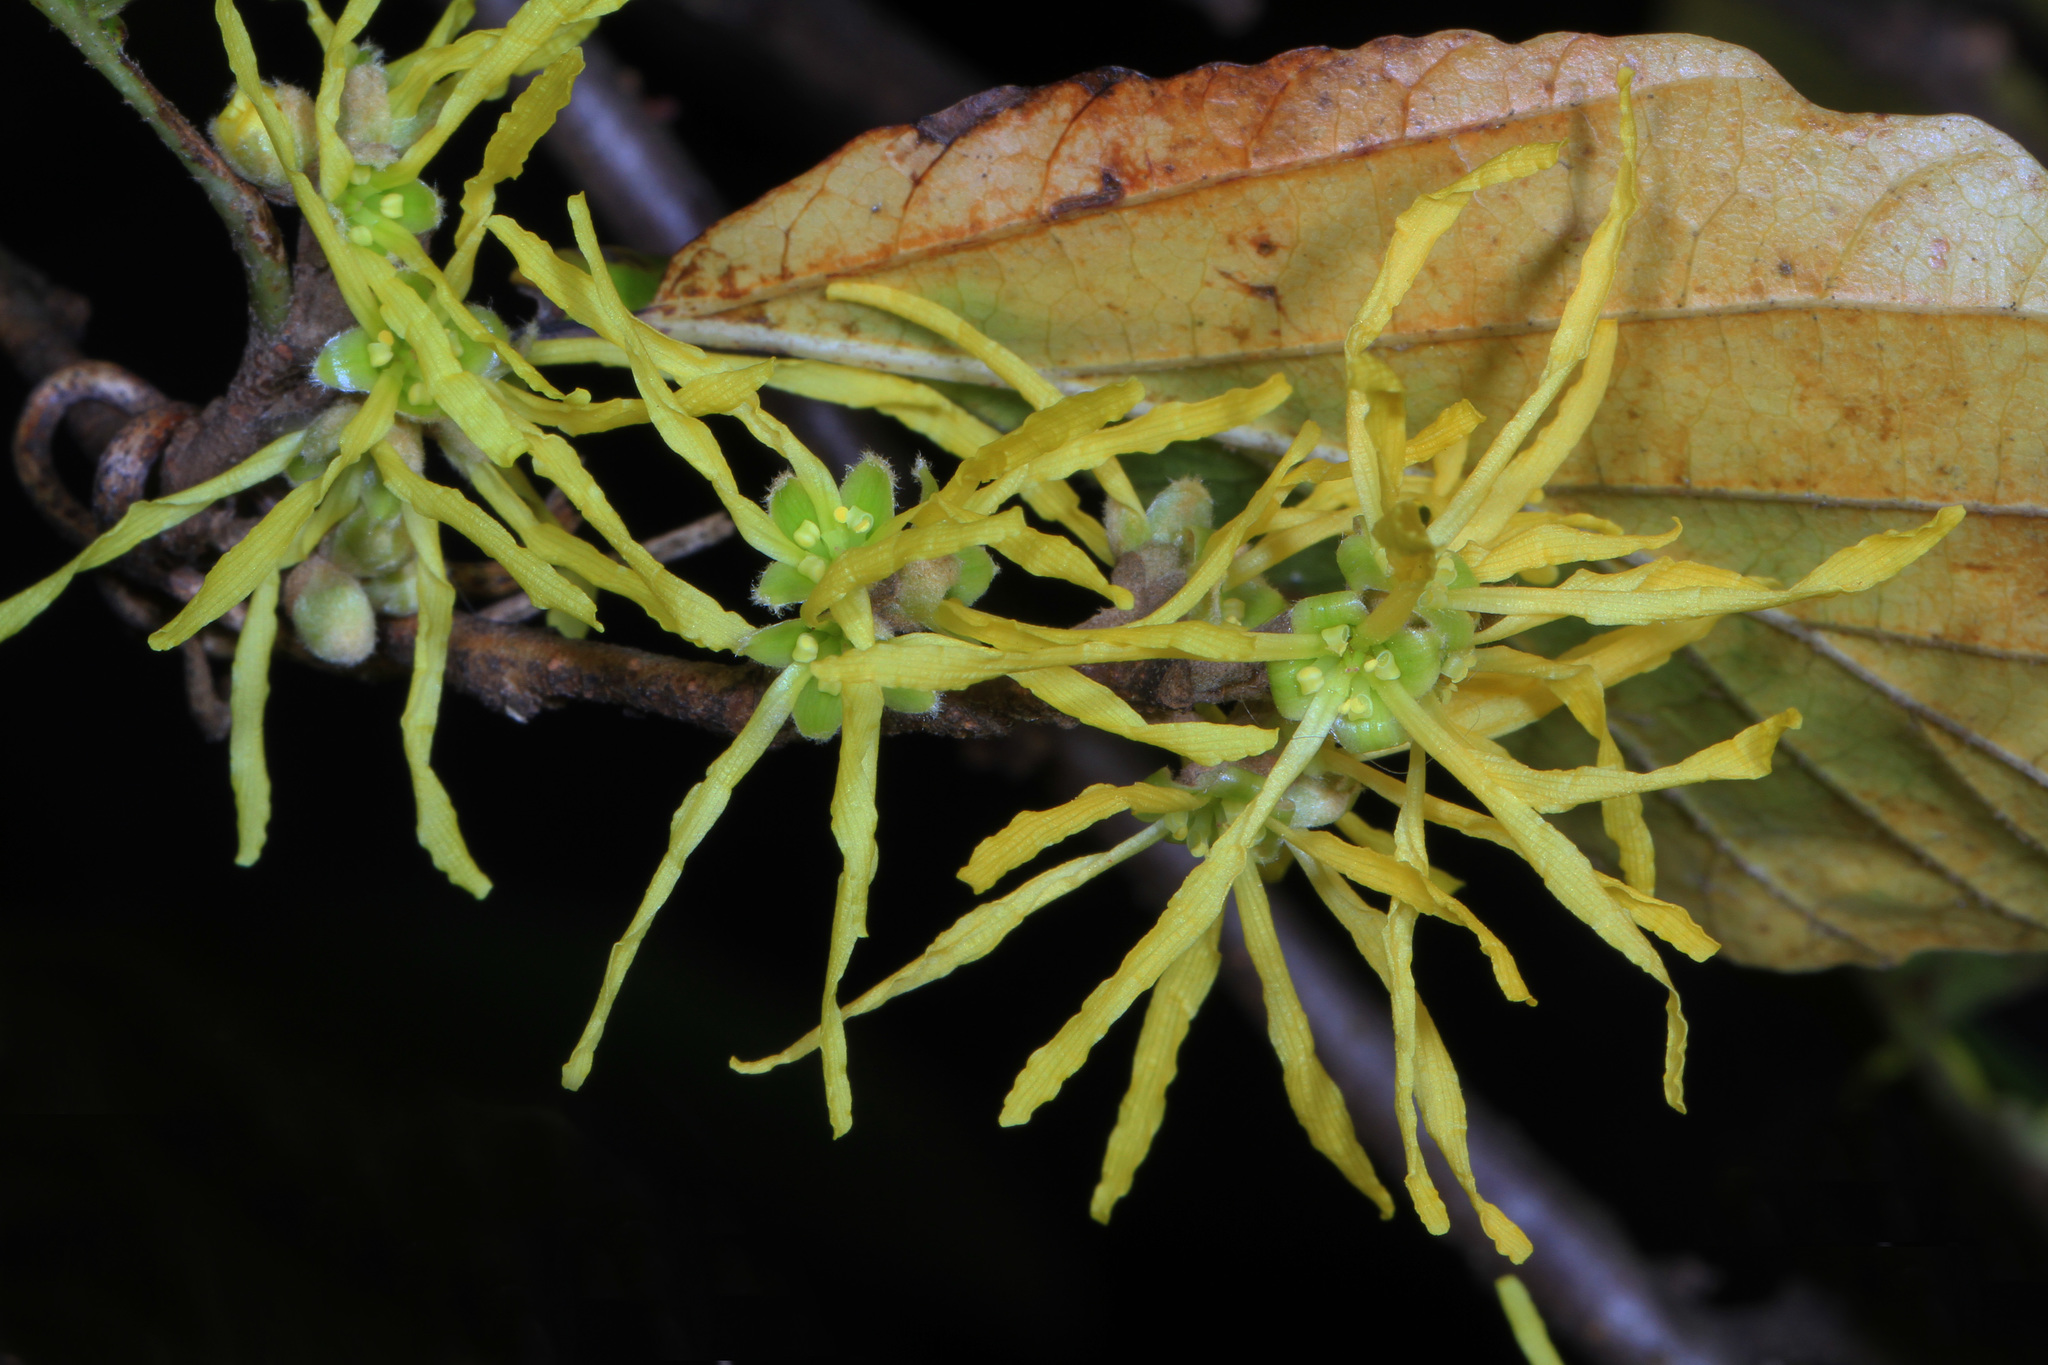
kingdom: Plantae
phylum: Tracheophyta
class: Magnoliopsida
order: Saxifragales
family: Hamamelidaceae
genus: Hamamelis
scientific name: Hamamelis virginiana
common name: Witch-hazel
